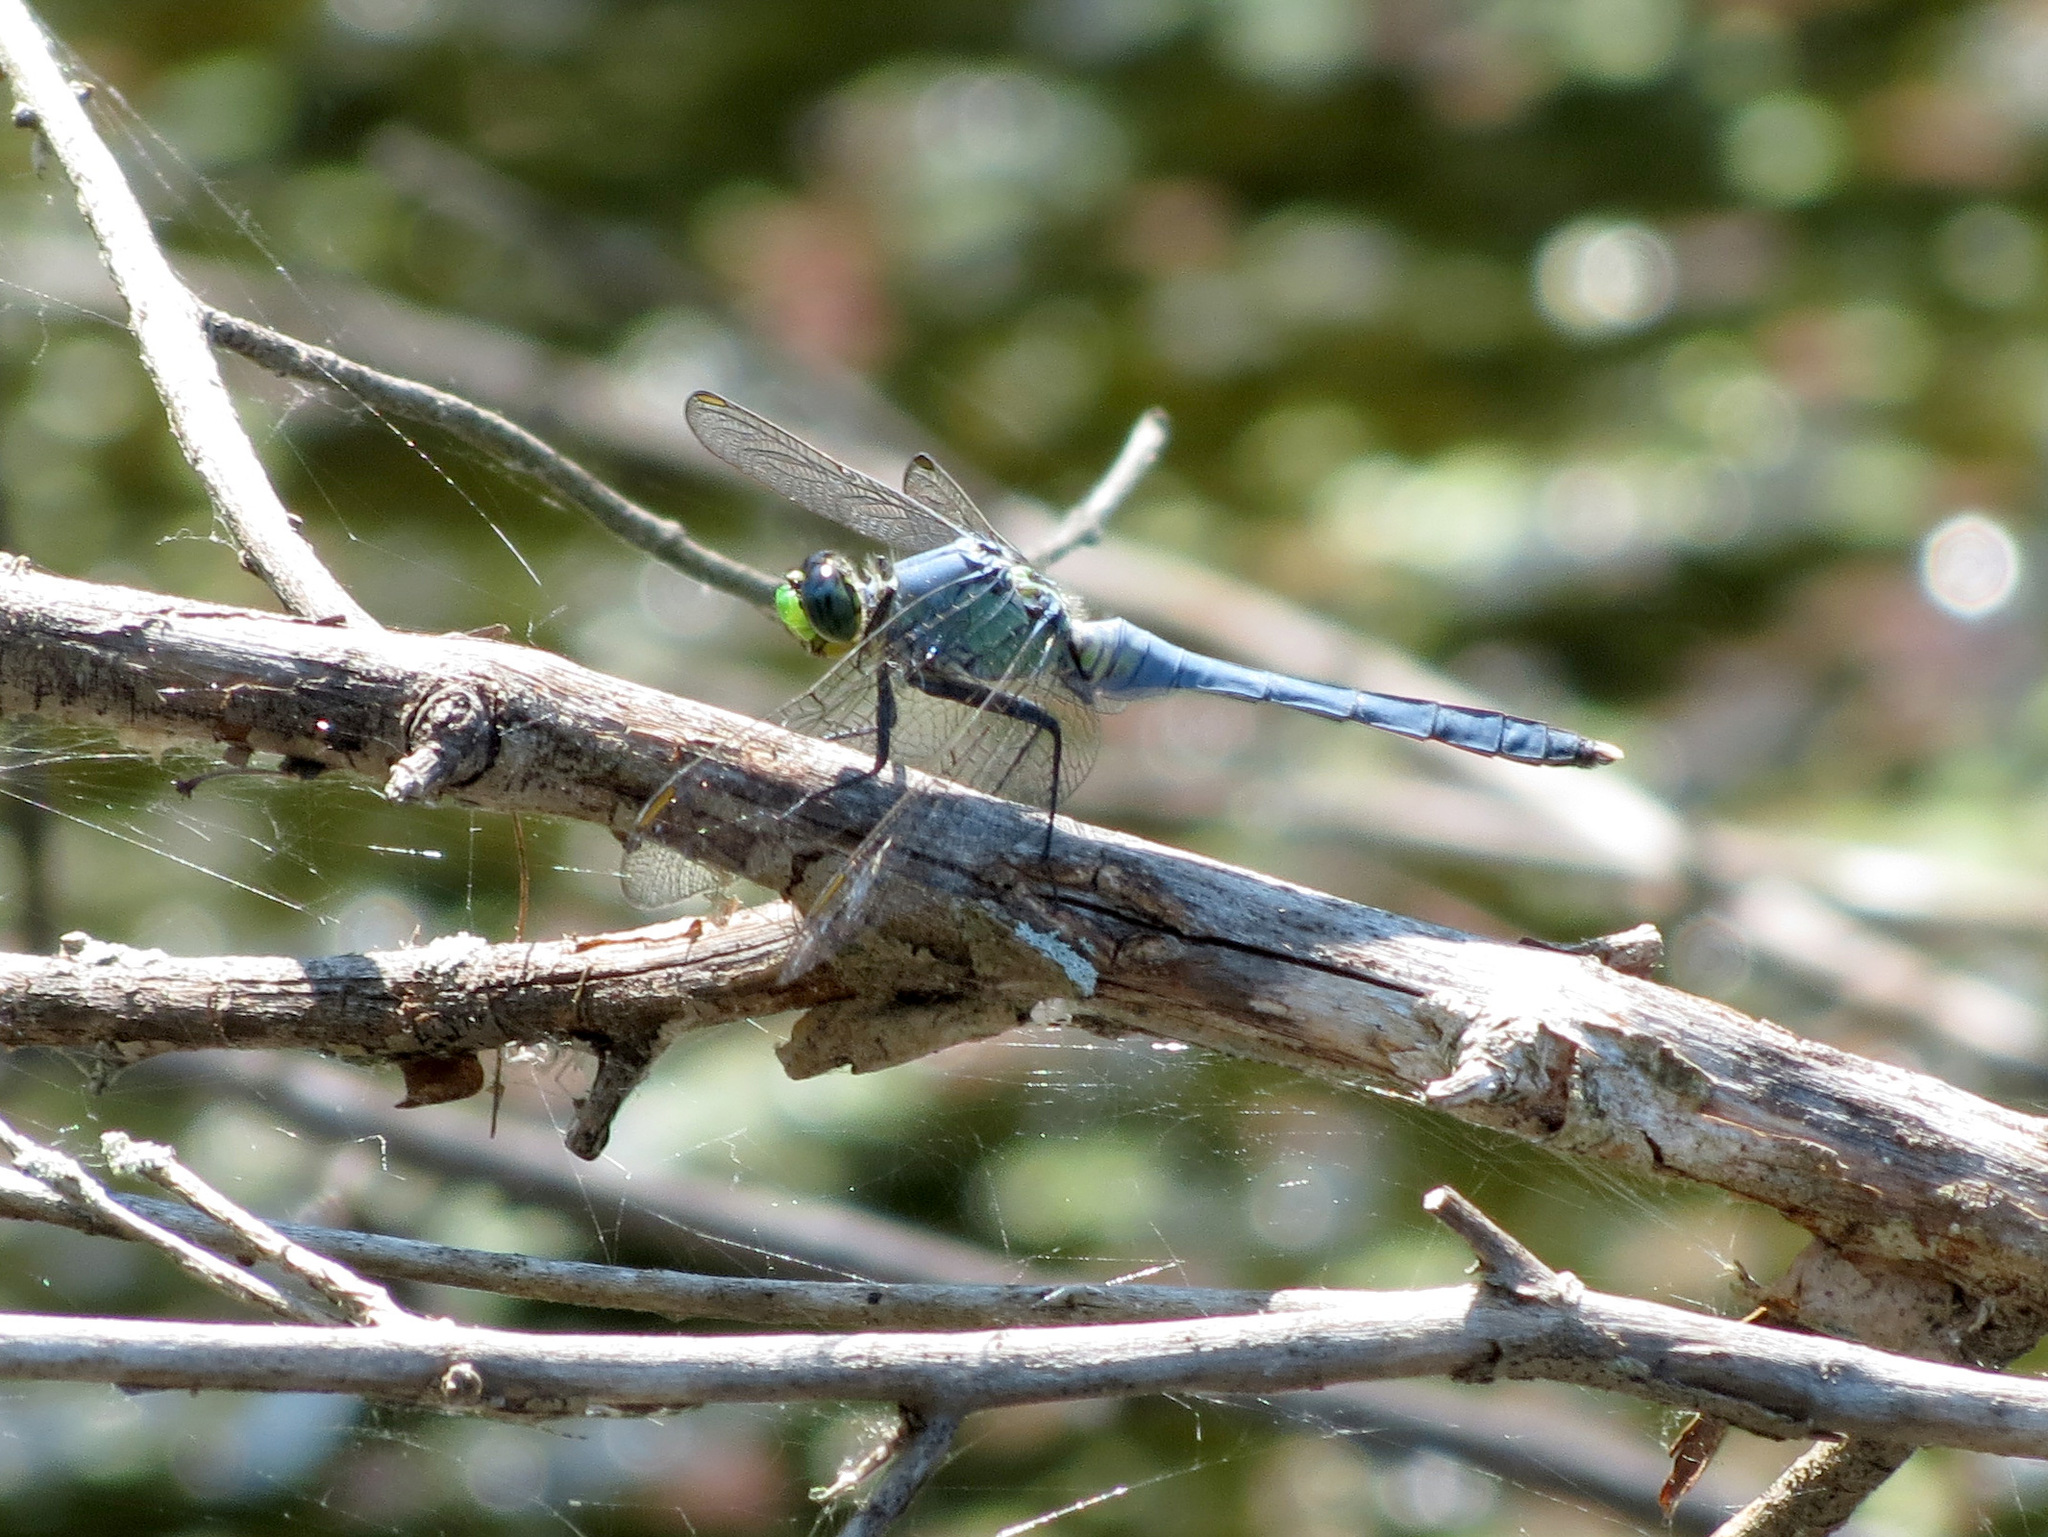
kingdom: Animalia
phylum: Arthropoda
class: Insecta
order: Odonata
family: Libellulidae
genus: Erythemis
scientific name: Erythemis simplicicollis
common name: Eastern pondhawk
